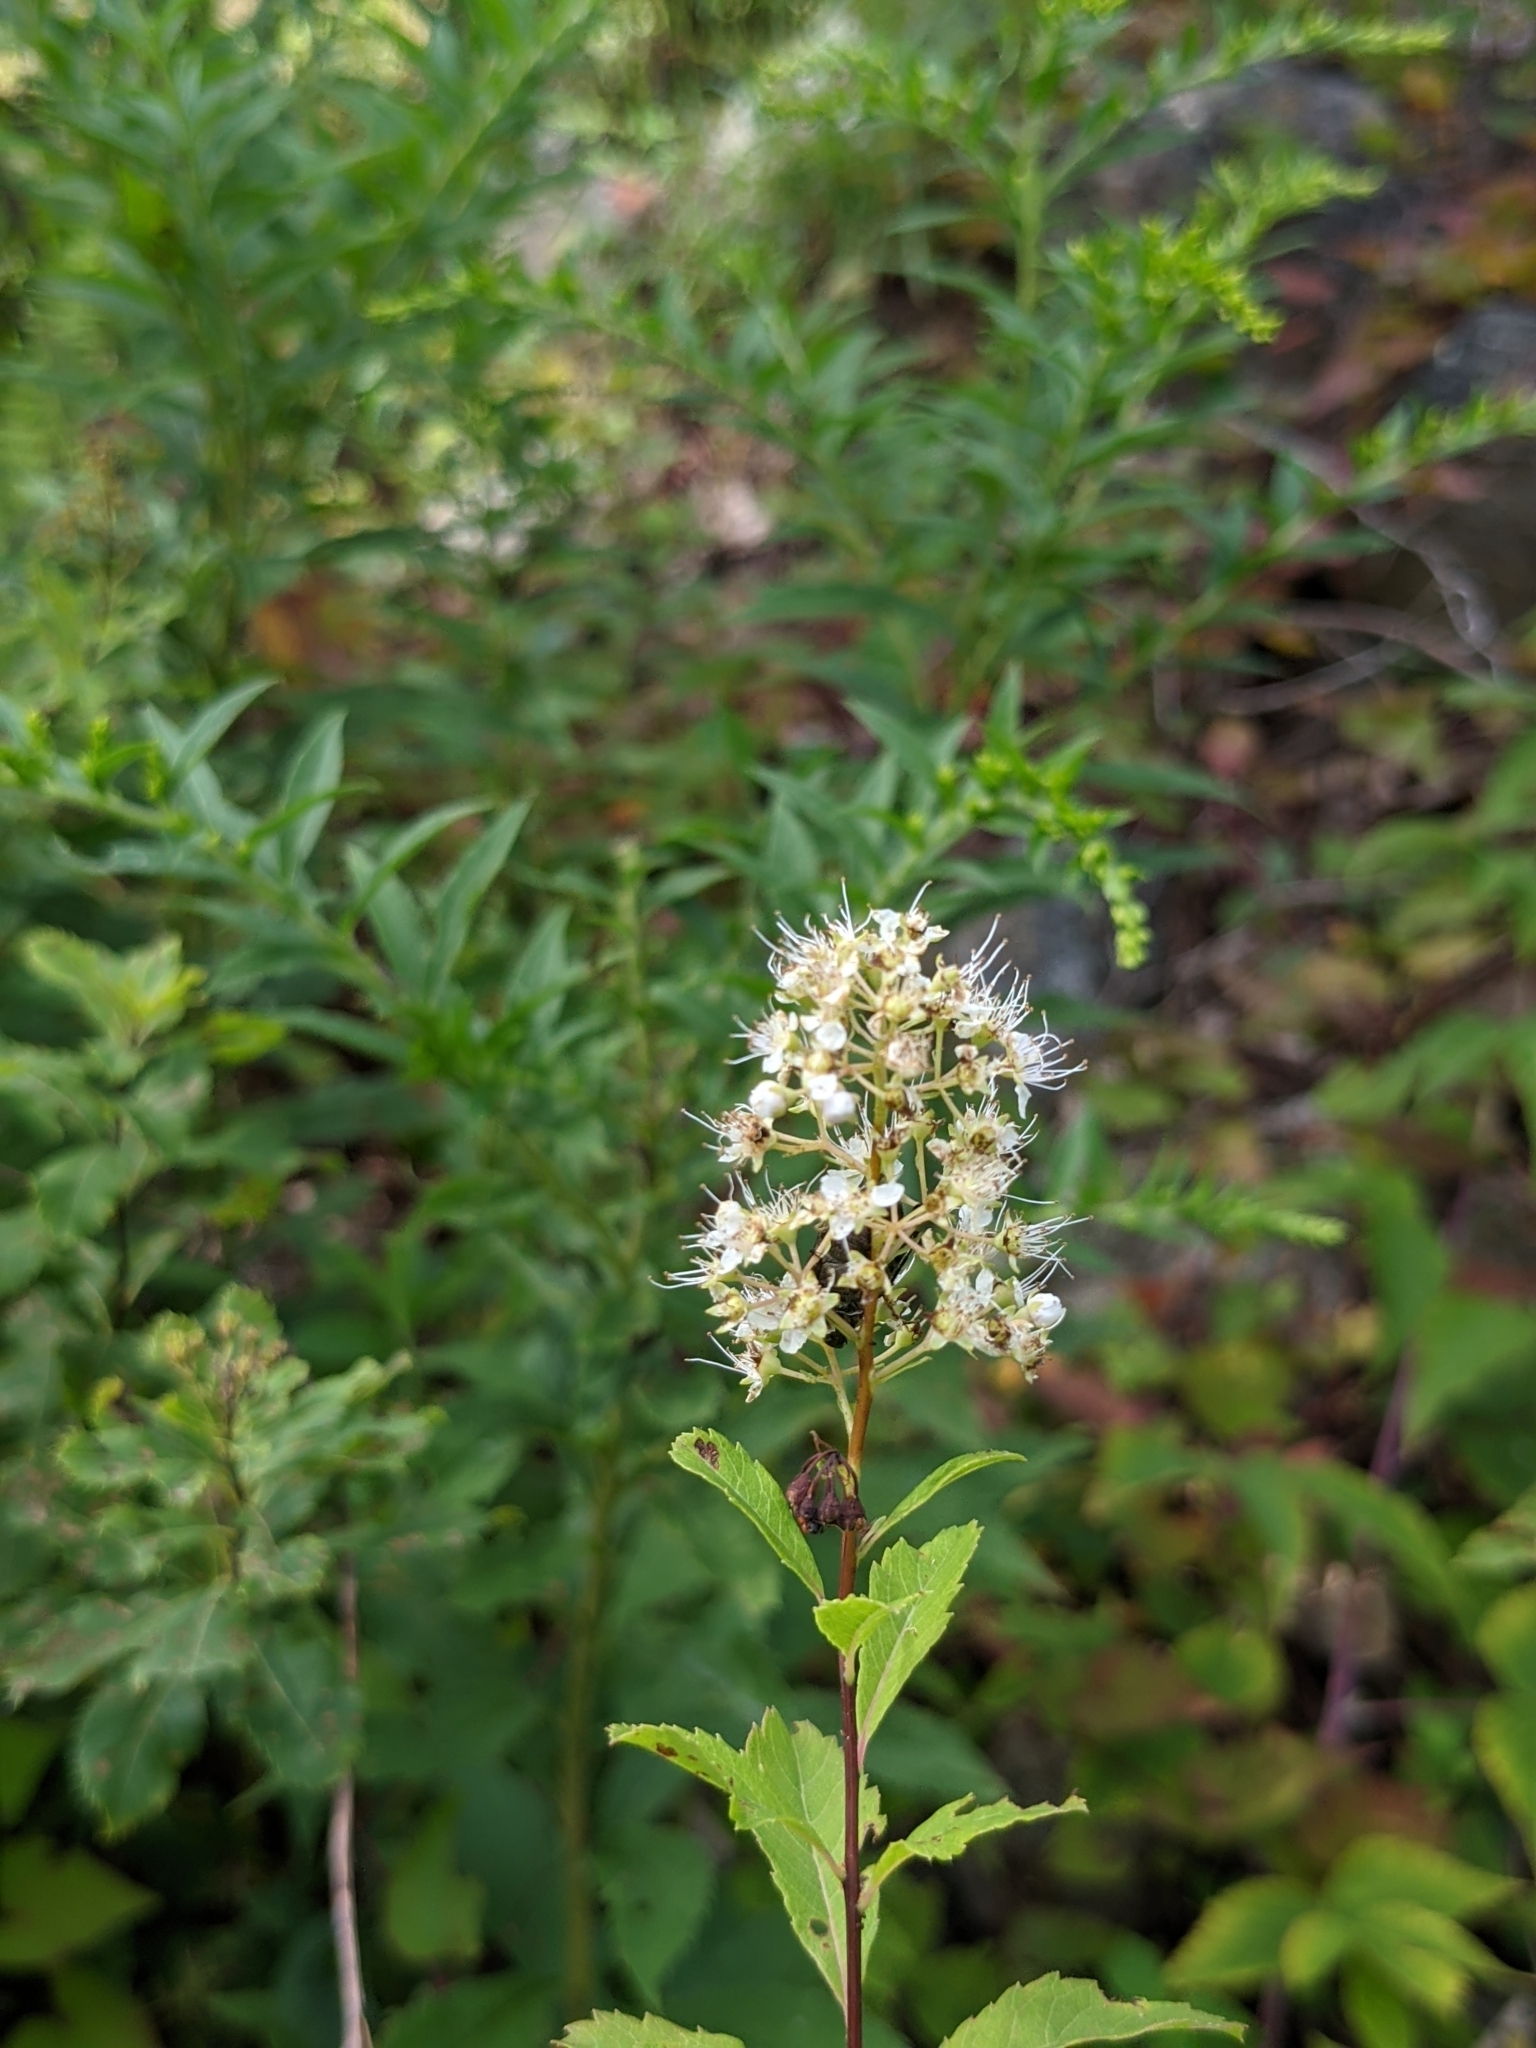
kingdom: Plantae
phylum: Tracheophyta
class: Magnoliopsida
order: Rosales
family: Rosaceae
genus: Spiraea
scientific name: Spiraea alba
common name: Pale bridewort
